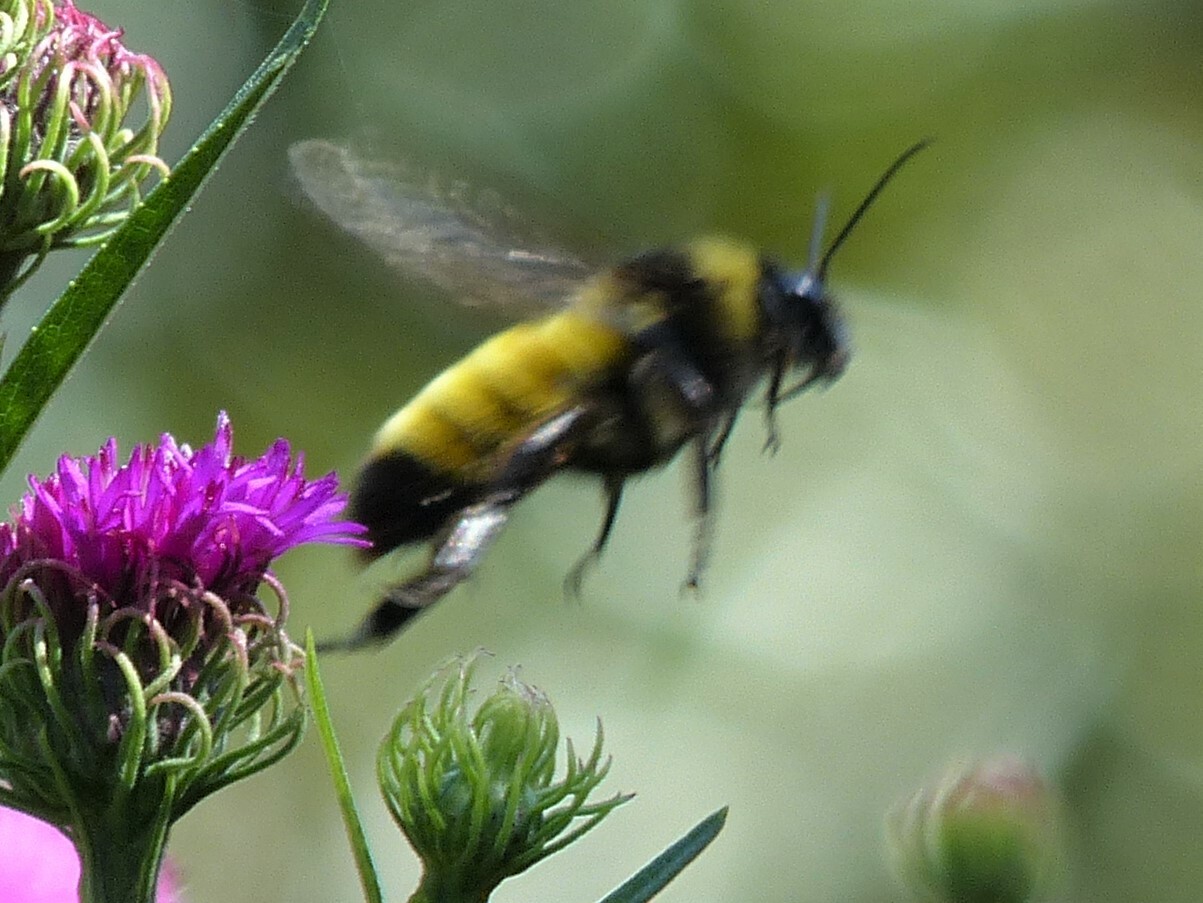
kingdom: Animalia
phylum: Arthropoda
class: Insecta
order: Hymenoptera
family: Apidae
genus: Bombus
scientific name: Bombus pensylvanicus
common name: Bumble bee
